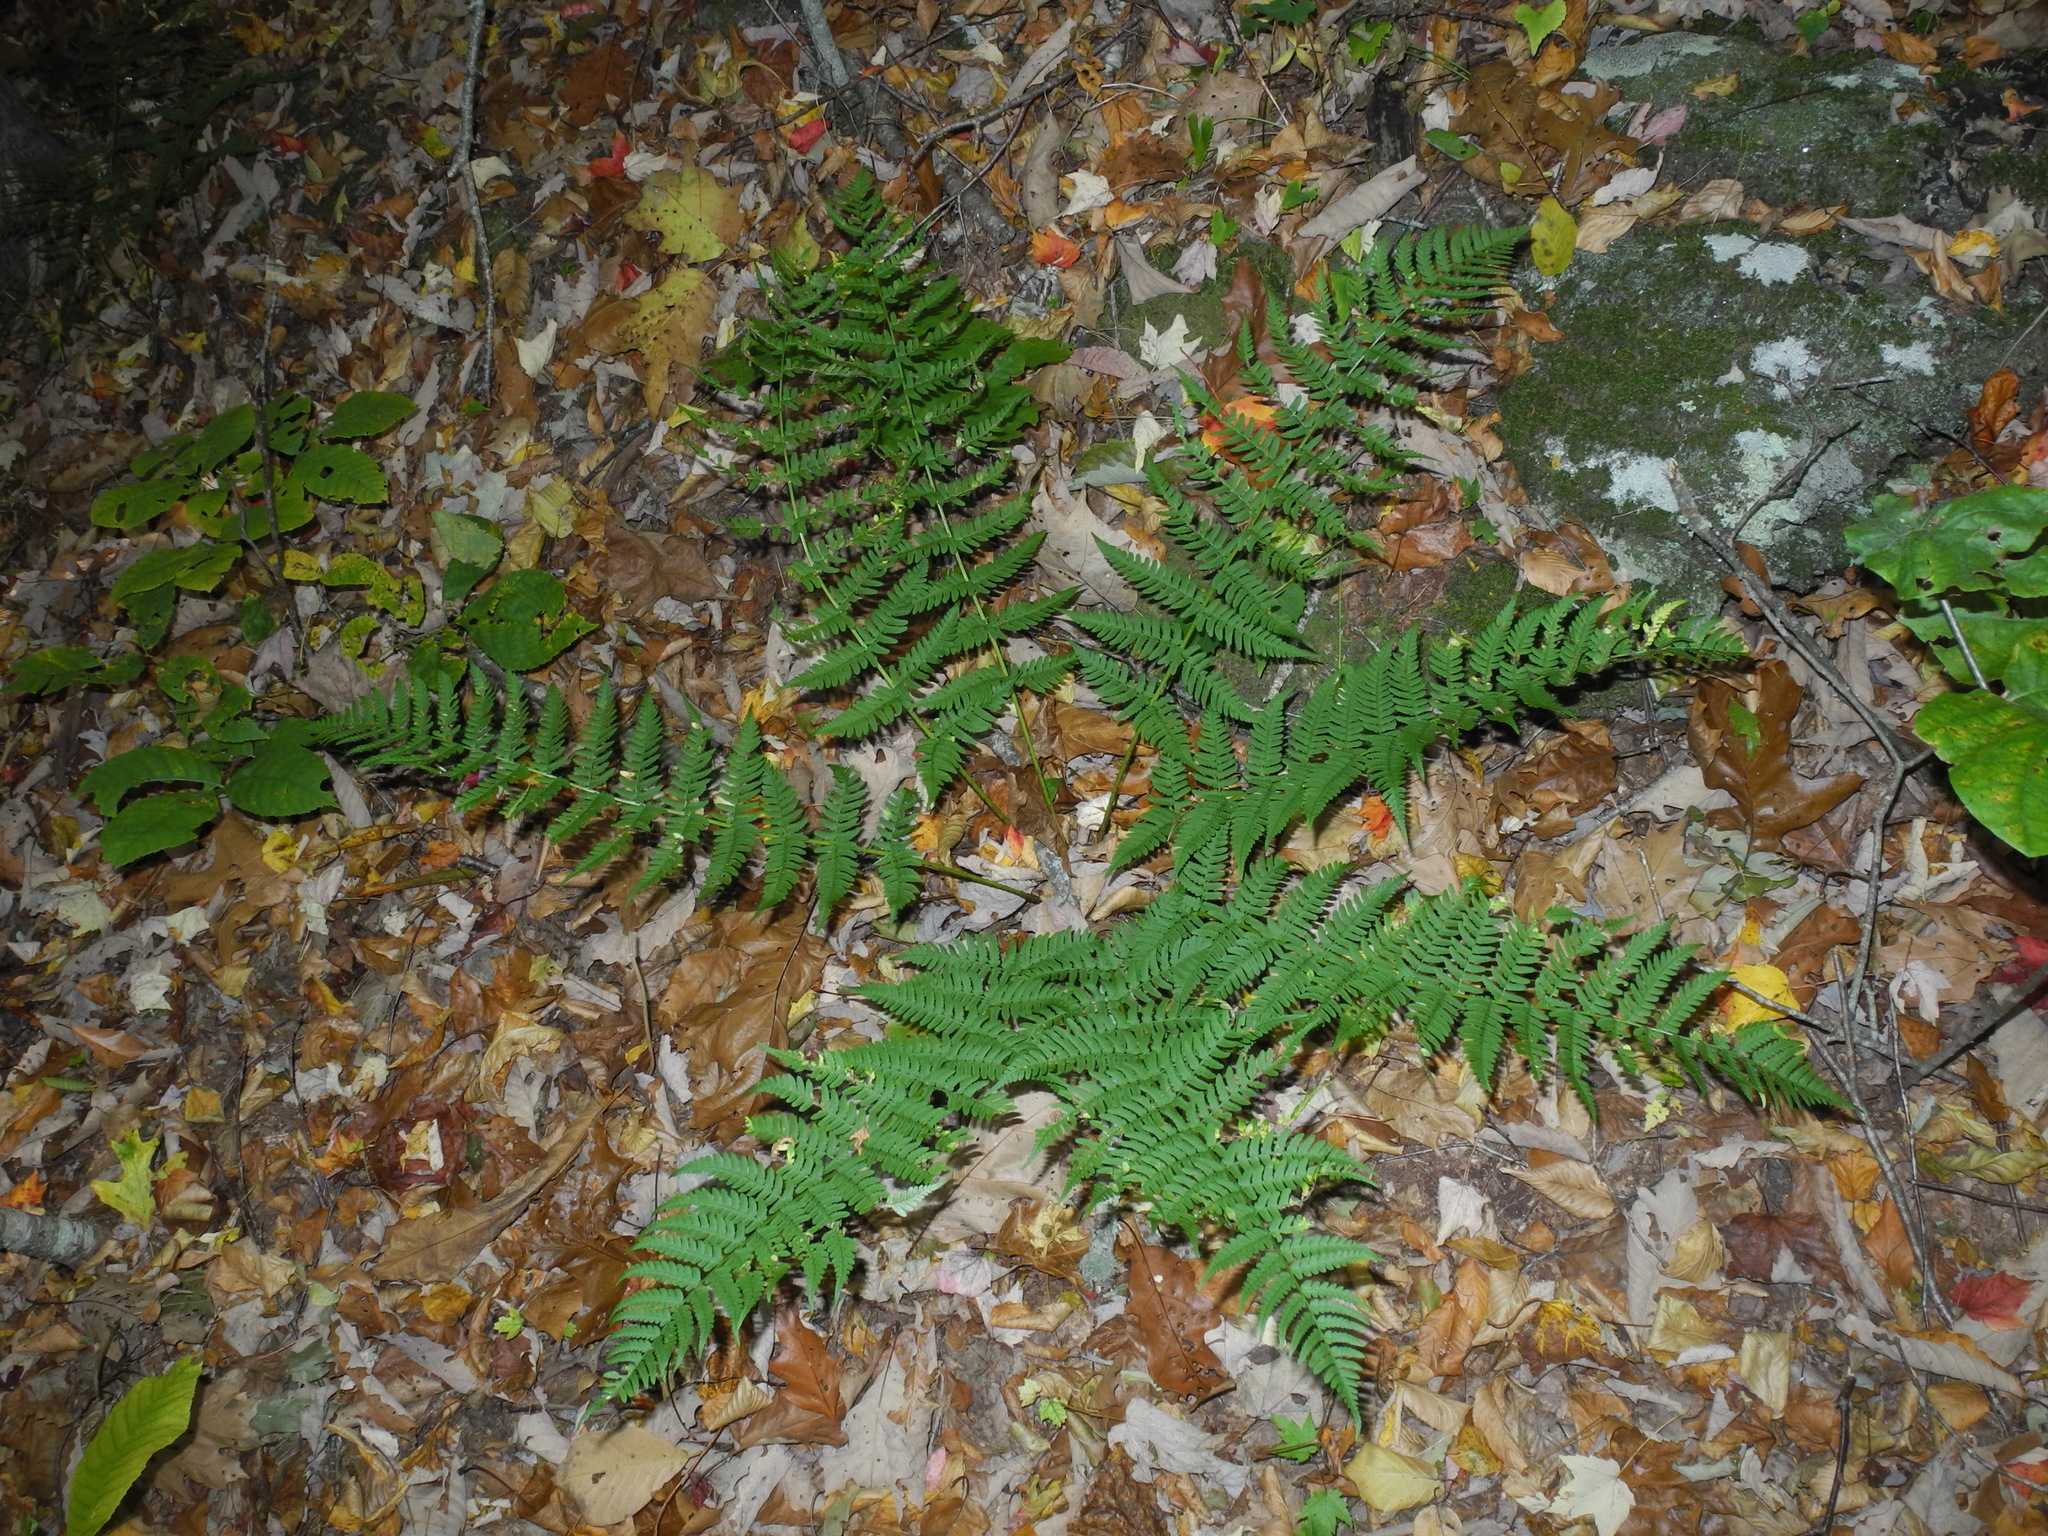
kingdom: Plantae
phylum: Tracheophyta
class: Polypodiopsida
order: Polypodiales
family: Dryopteridaceae
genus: Dryopteris
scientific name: Dryopteris marginalis
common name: Marginal wood fern
